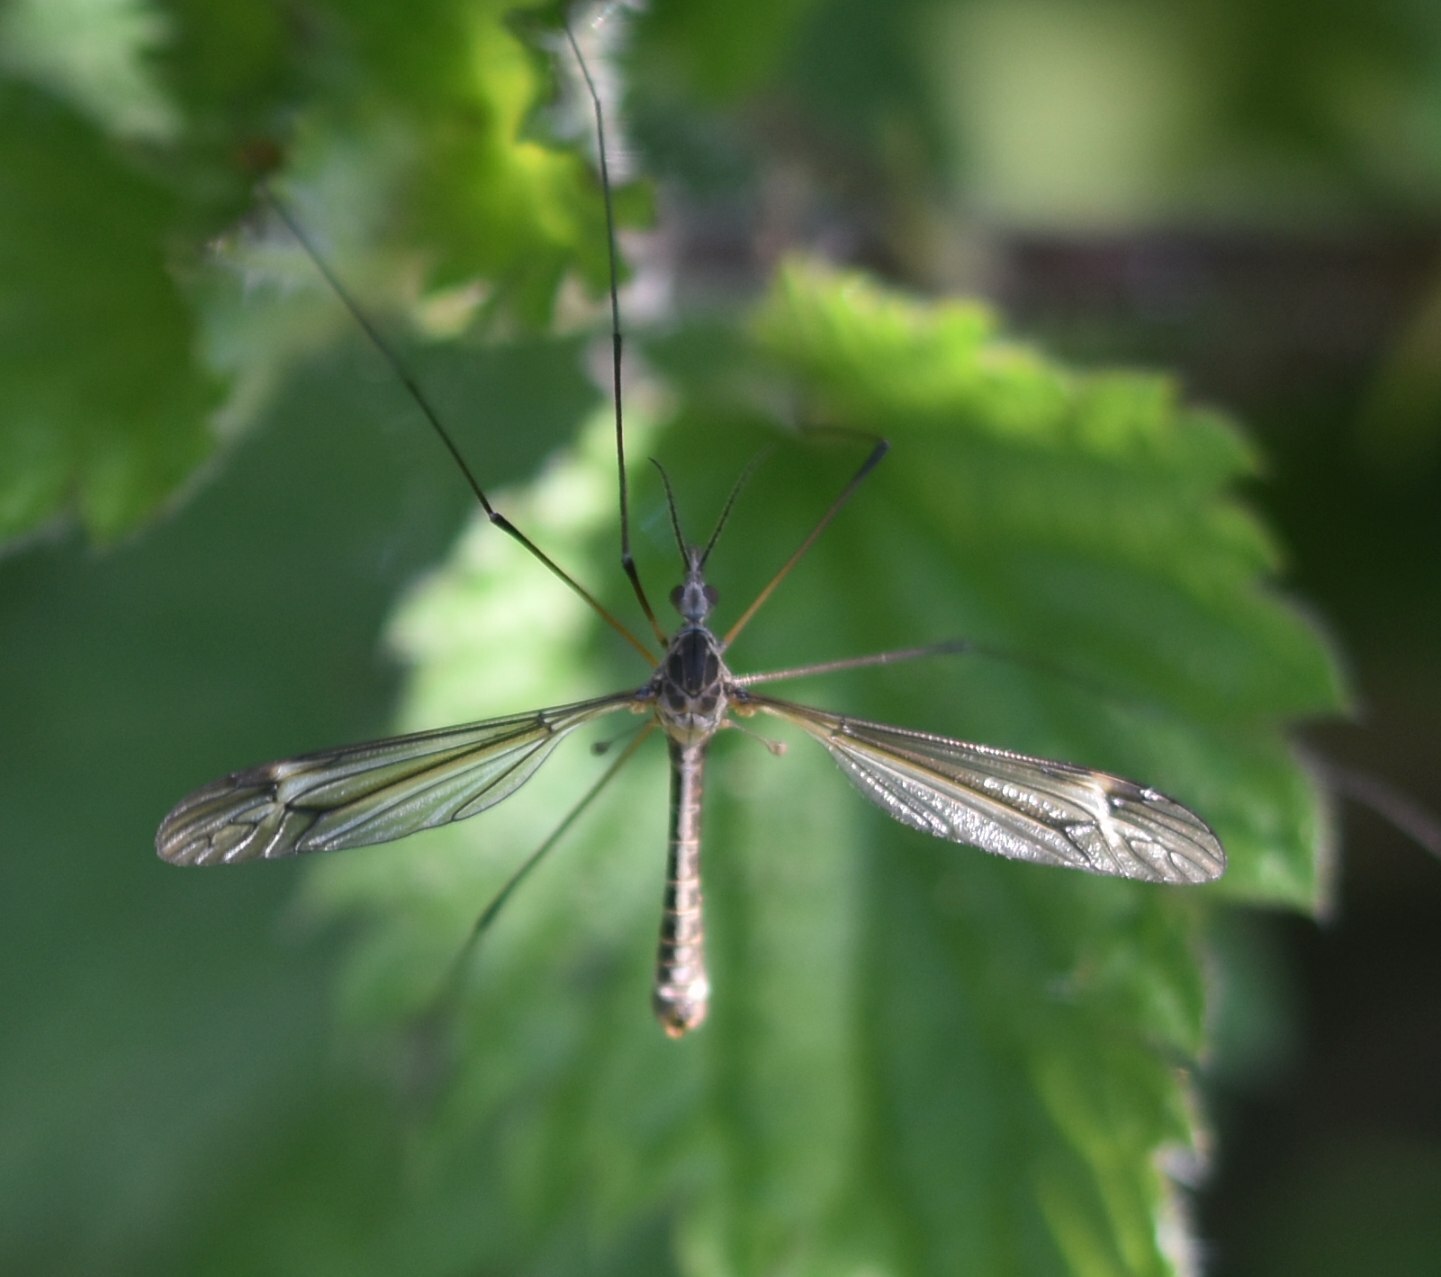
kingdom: Animalia
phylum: Arthropoda
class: Insecta
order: Diptera
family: Tipulidae
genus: Tipula
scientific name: Tipula lateralis
